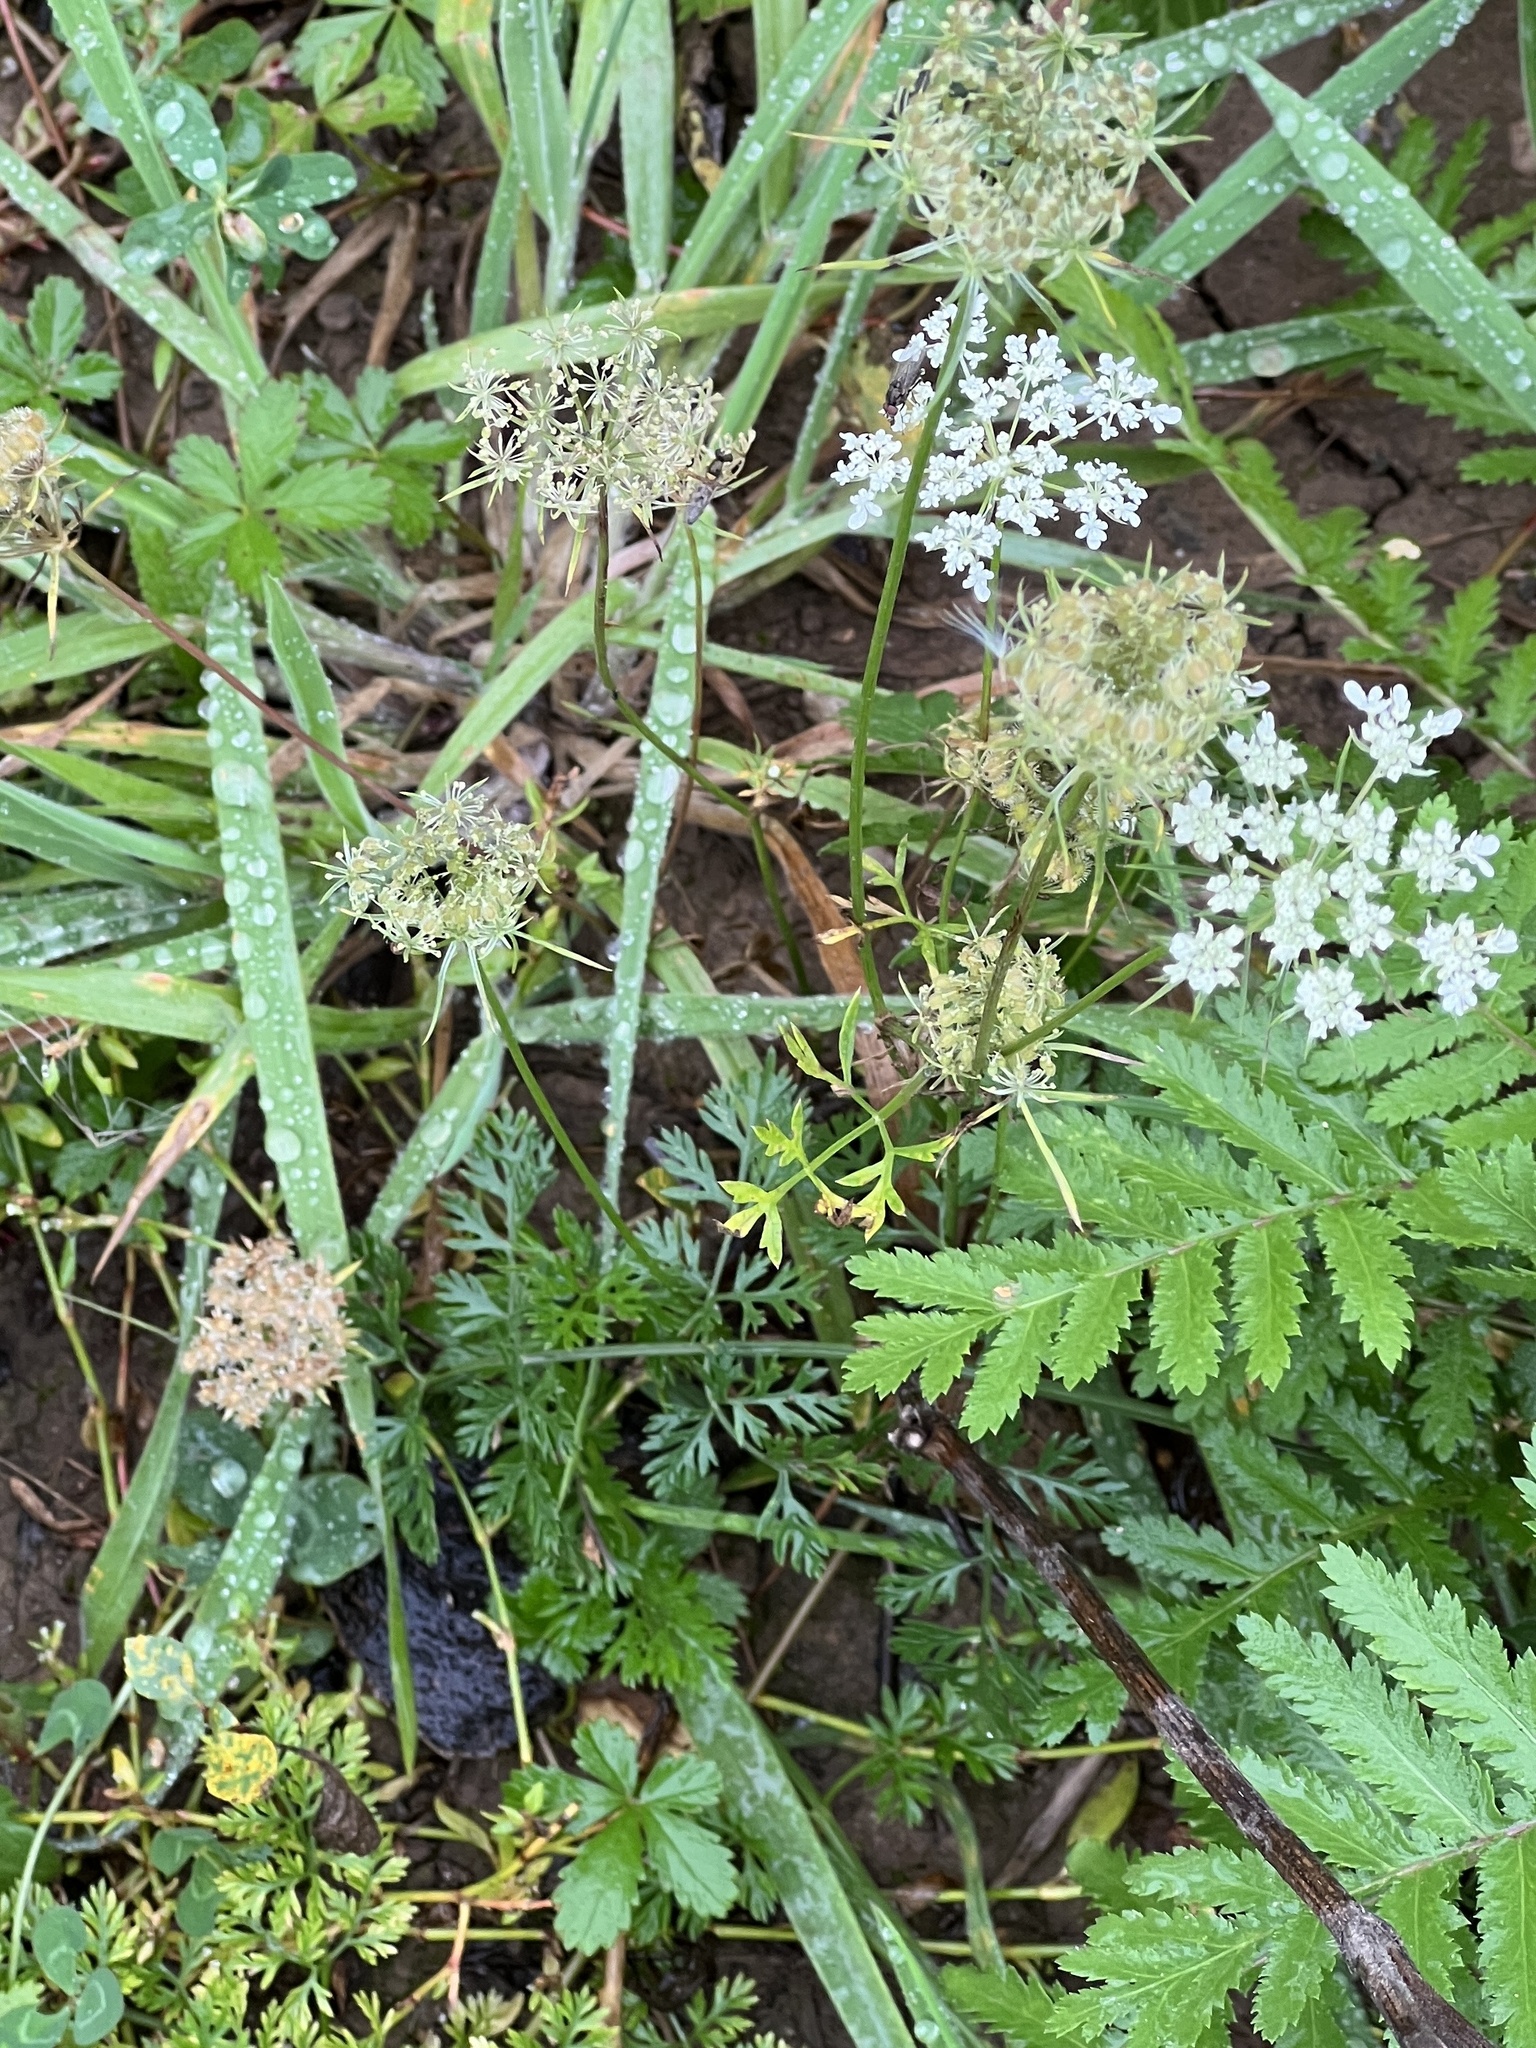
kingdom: Plantae
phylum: Tracheophyta
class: Magnoliopsida
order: Apiales
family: Apiaceae
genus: Daucus
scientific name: Daucus carota
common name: Wild carrot
